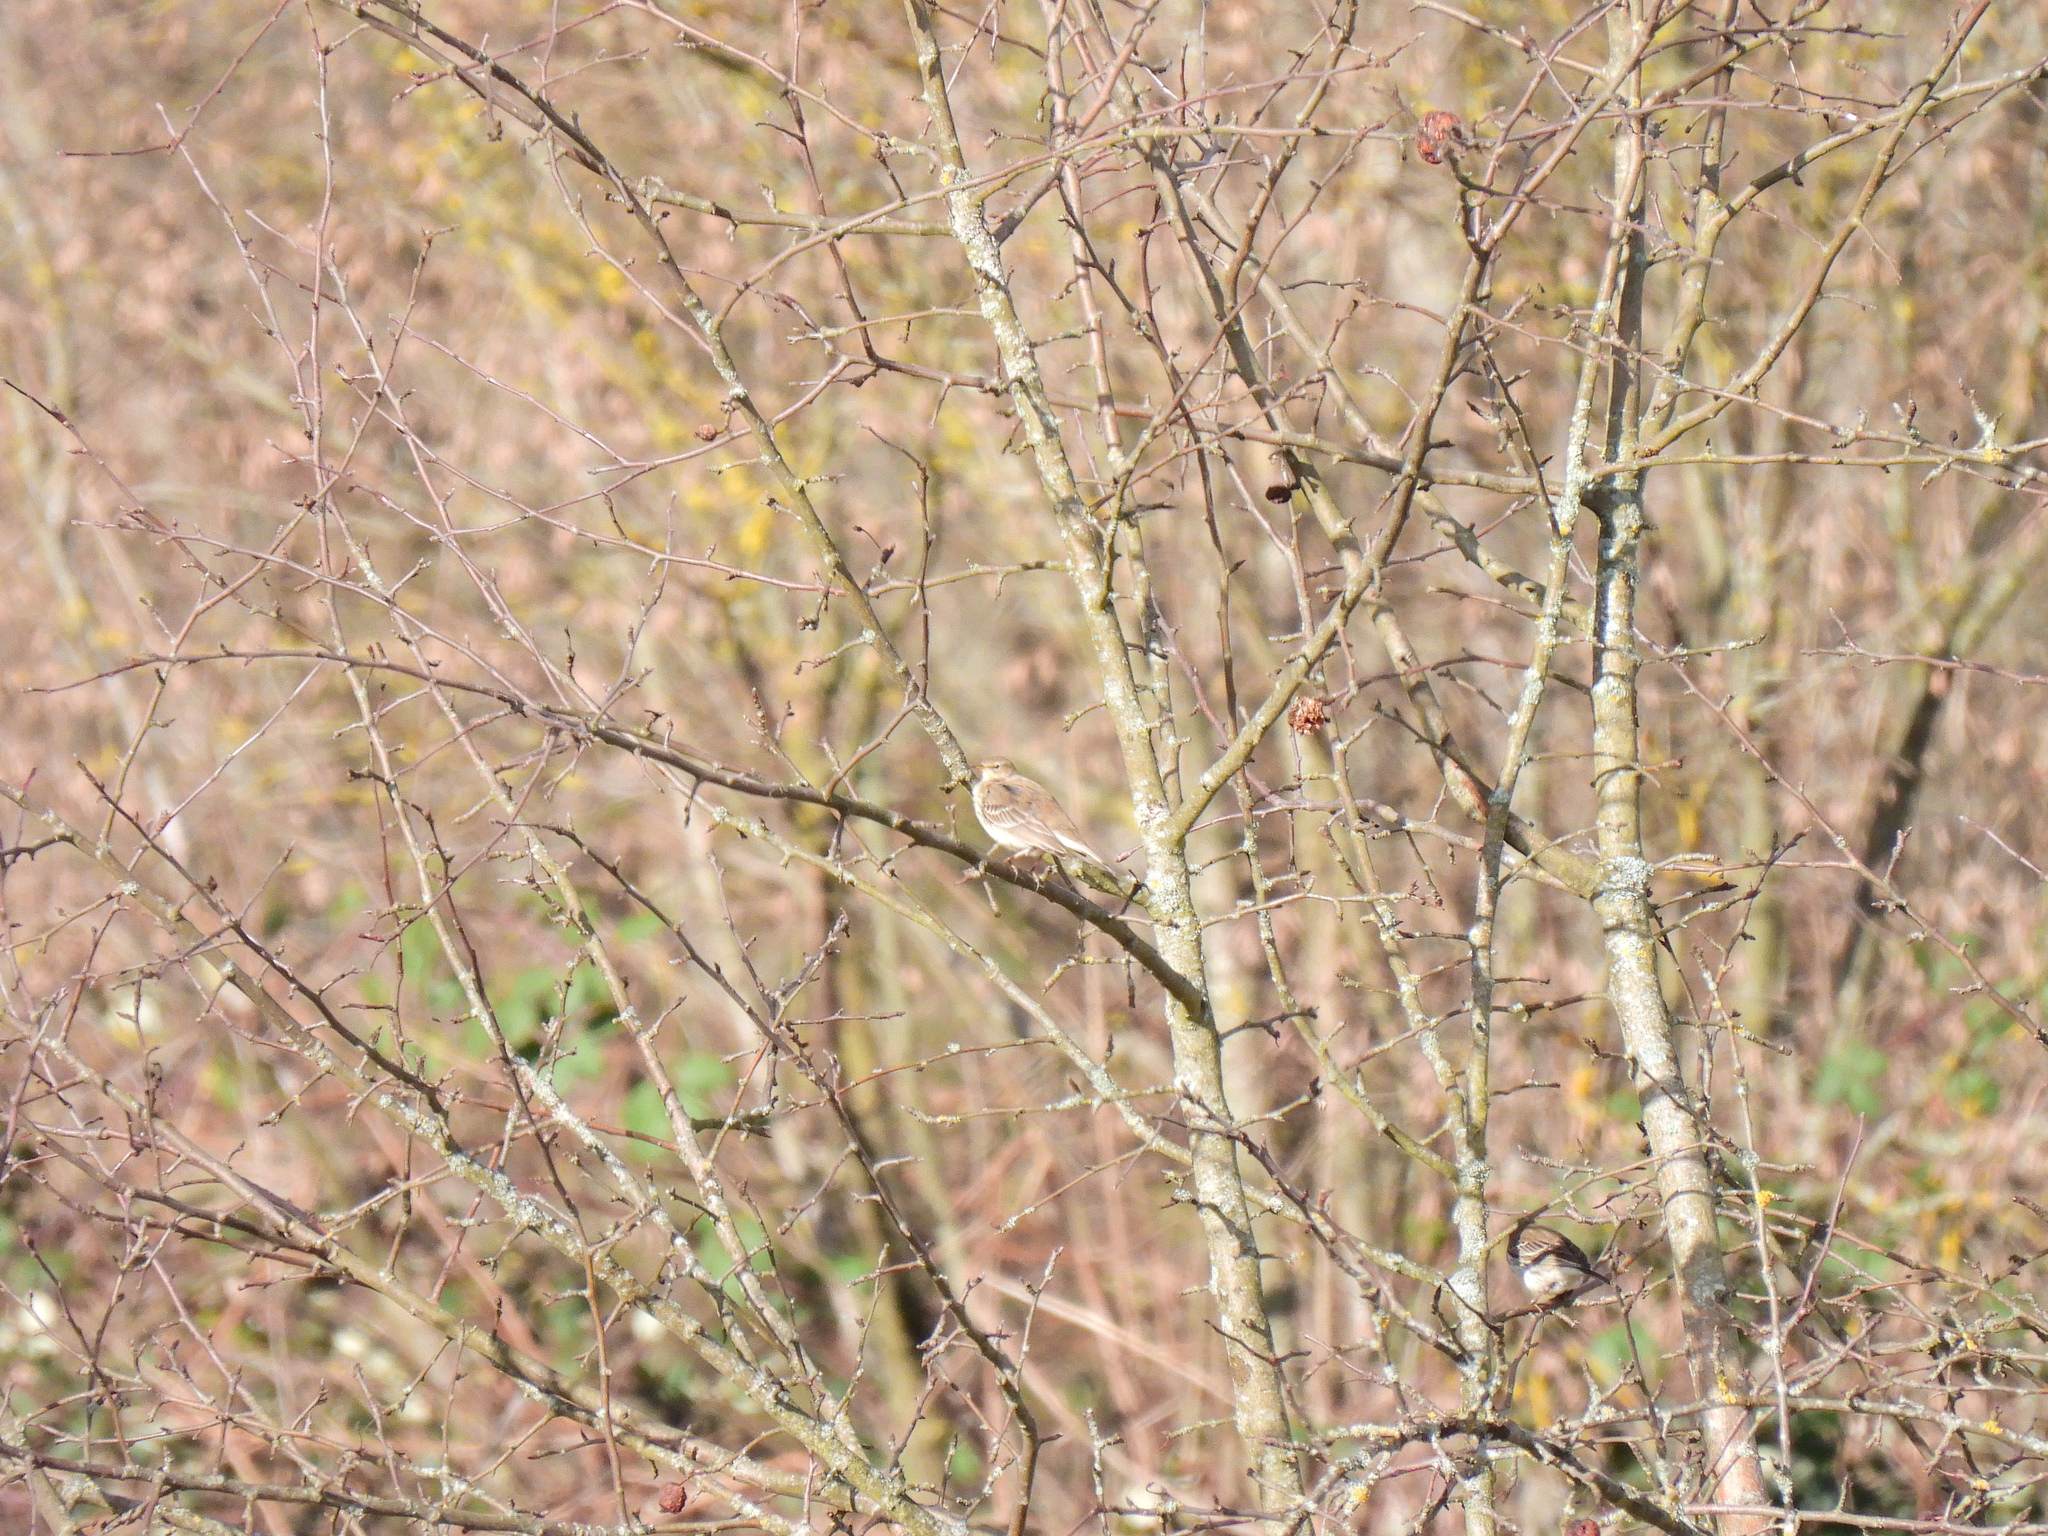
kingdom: Animalia
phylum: Chordata
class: Aves
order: Passeriformes
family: Motacillidae
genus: Anthus
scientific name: Anthus spinoletta
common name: Water pipit
